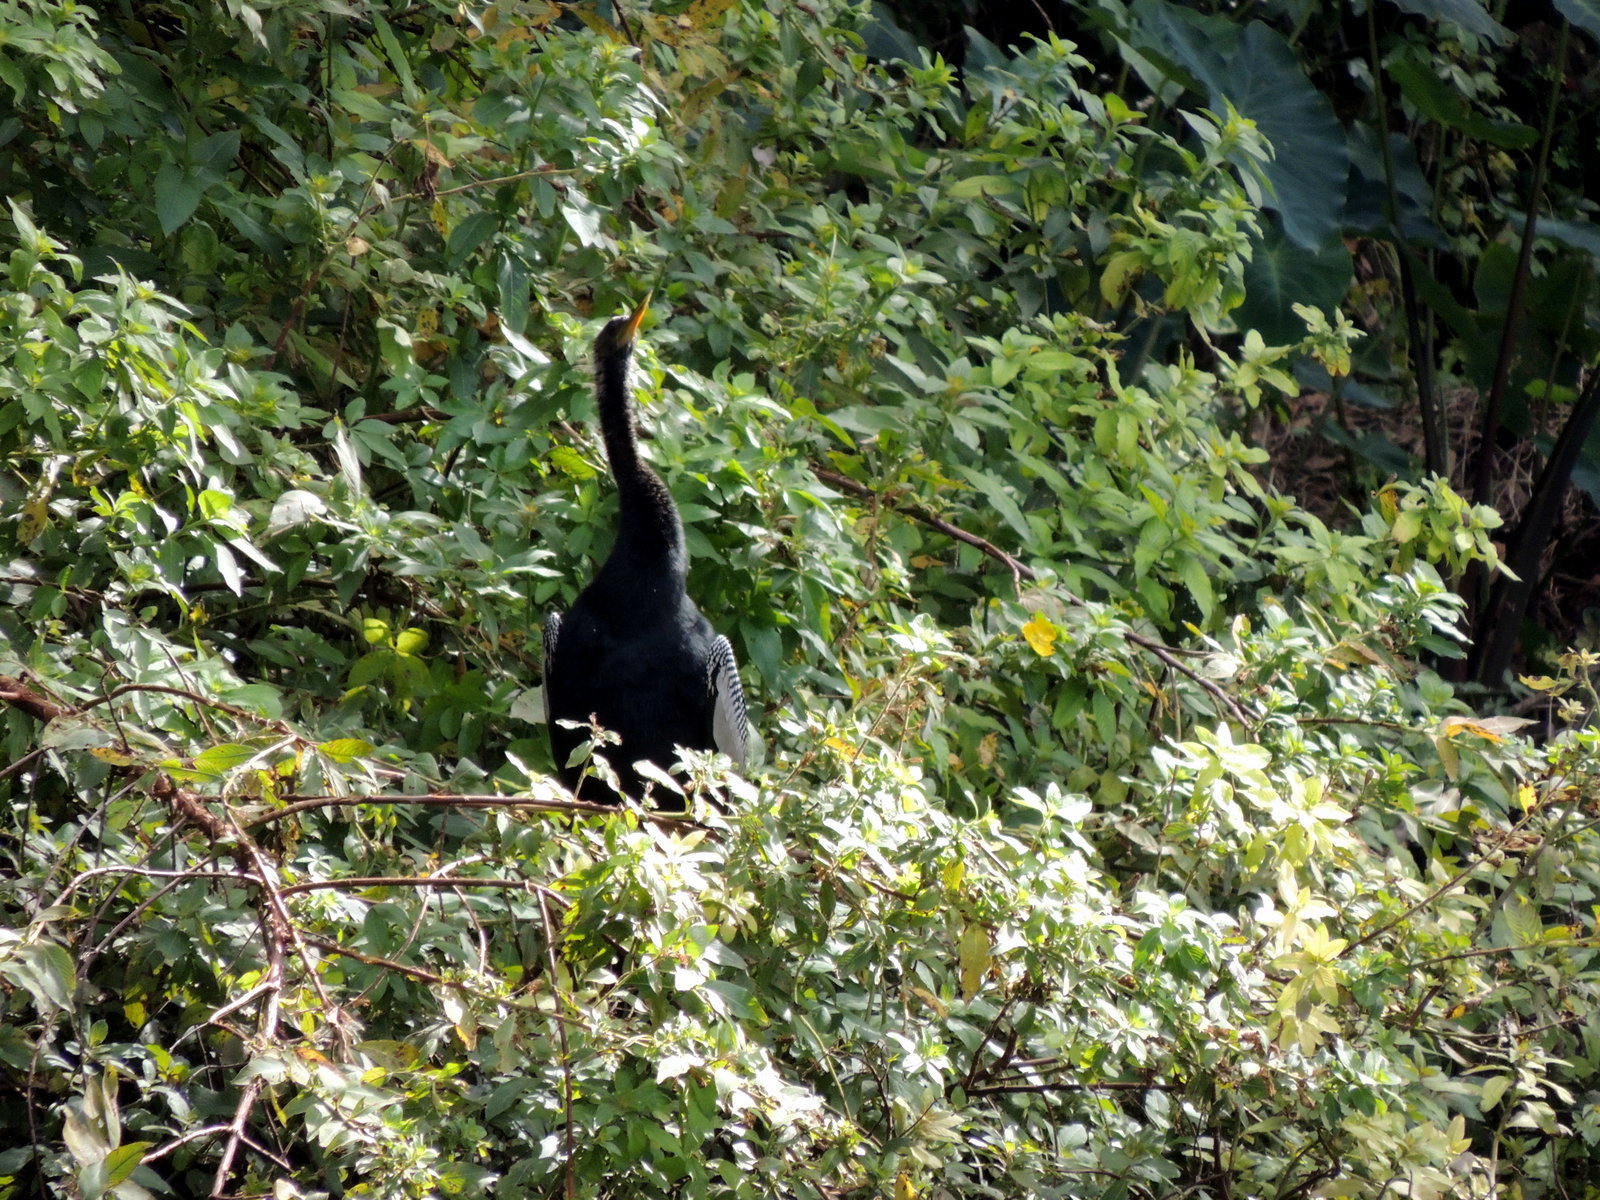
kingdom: Animalia
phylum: Chordata
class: Aves
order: Suliformes
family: Anhingidae
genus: Anhinga
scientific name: Anhinga anhinga
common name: Anhinga
